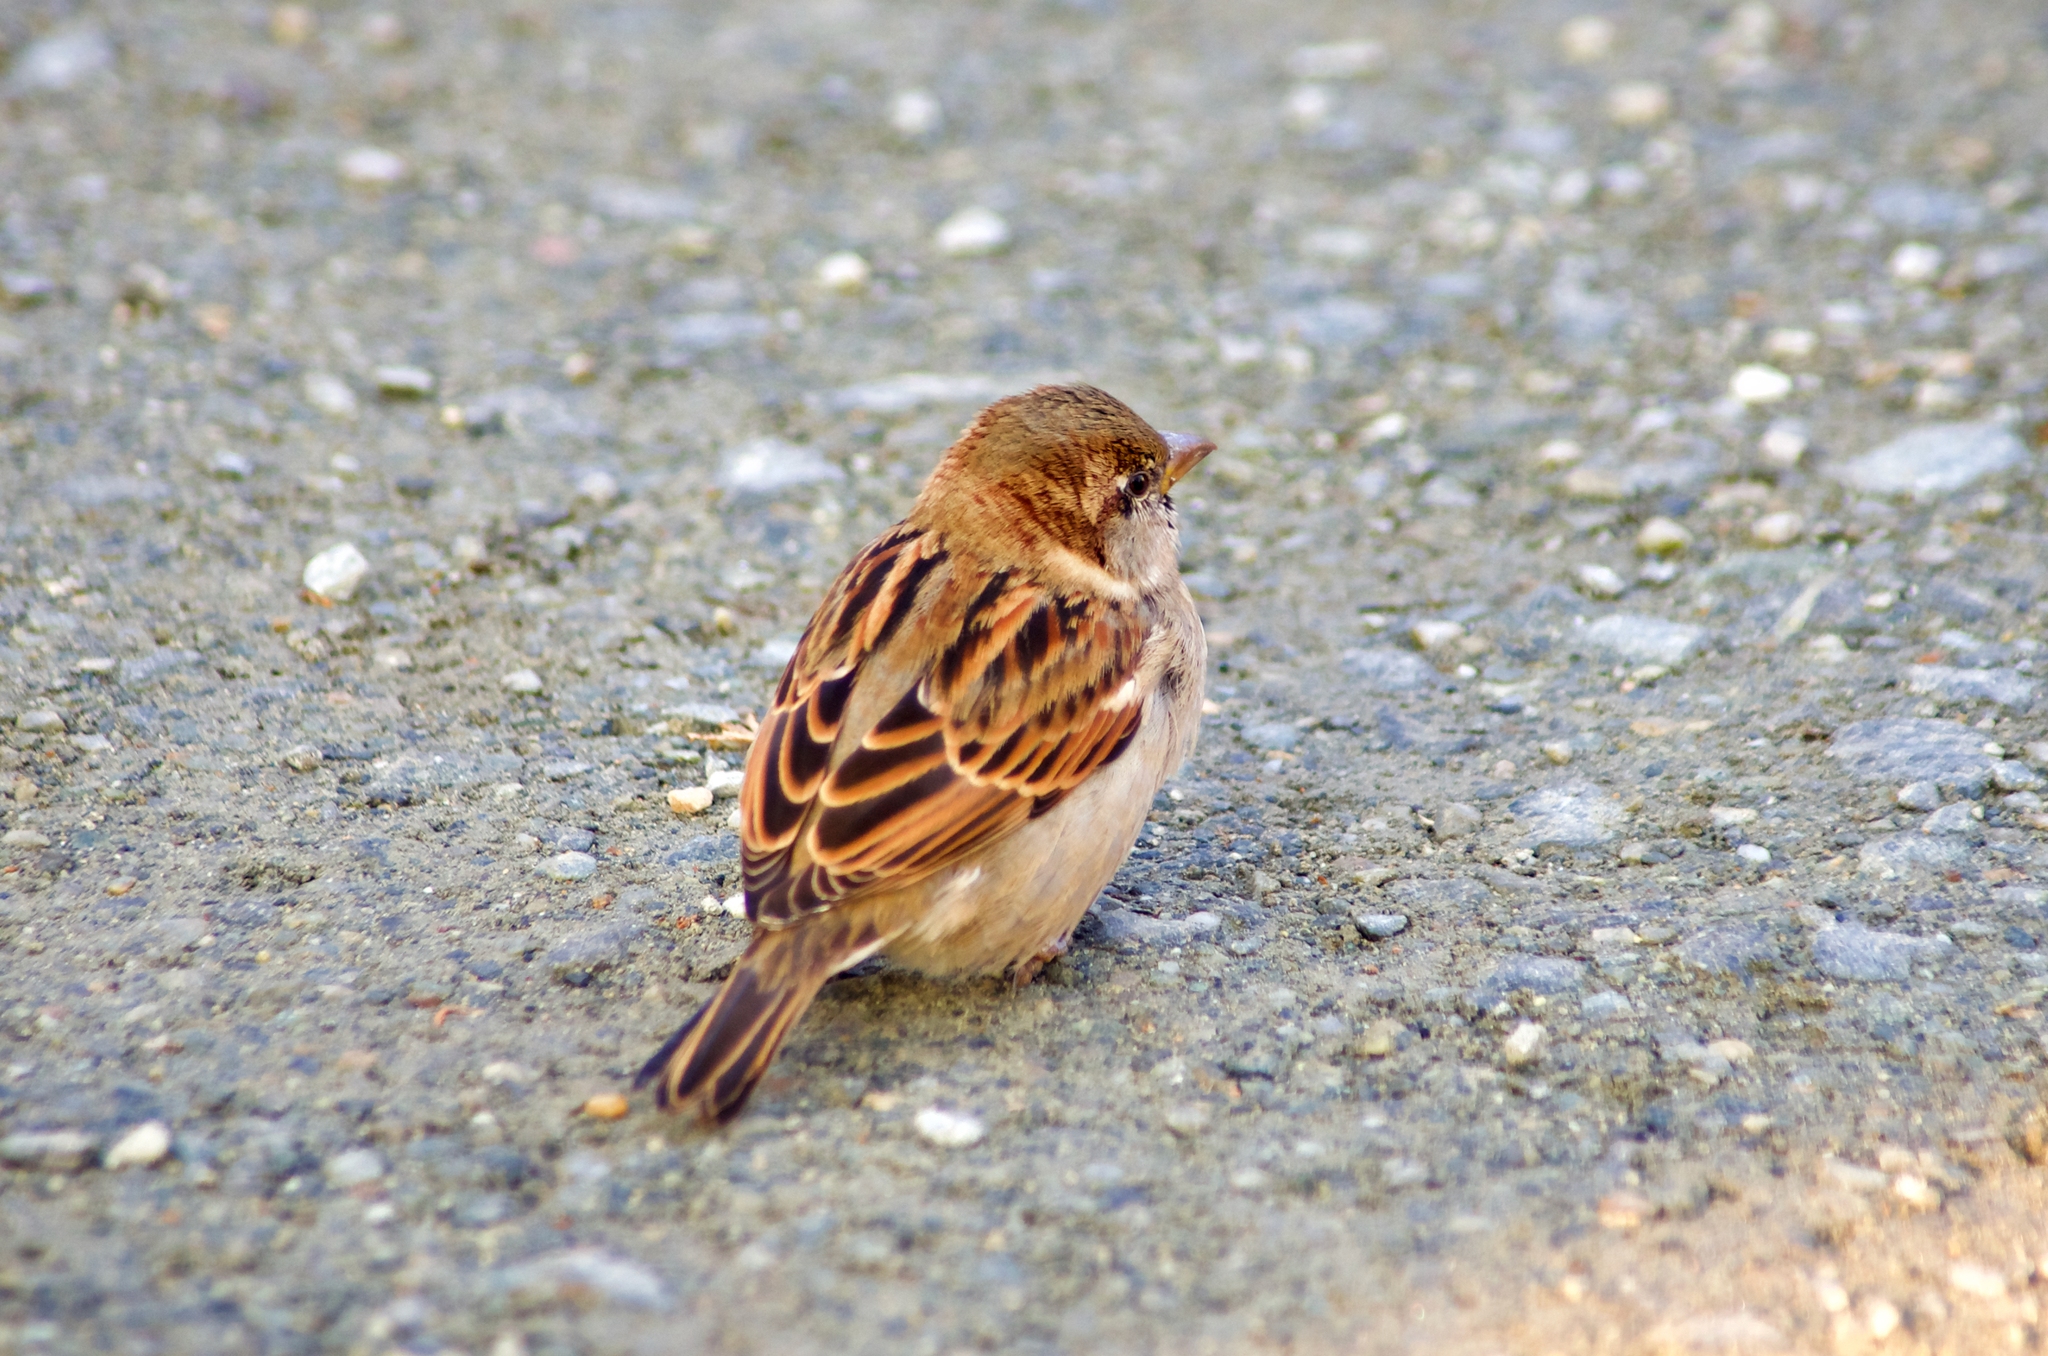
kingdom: Animalia
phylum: Chordata
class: Aves
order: Passeriformes
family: Passeridae
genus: Passer
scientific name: Passer domesticus
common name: House sparrow
